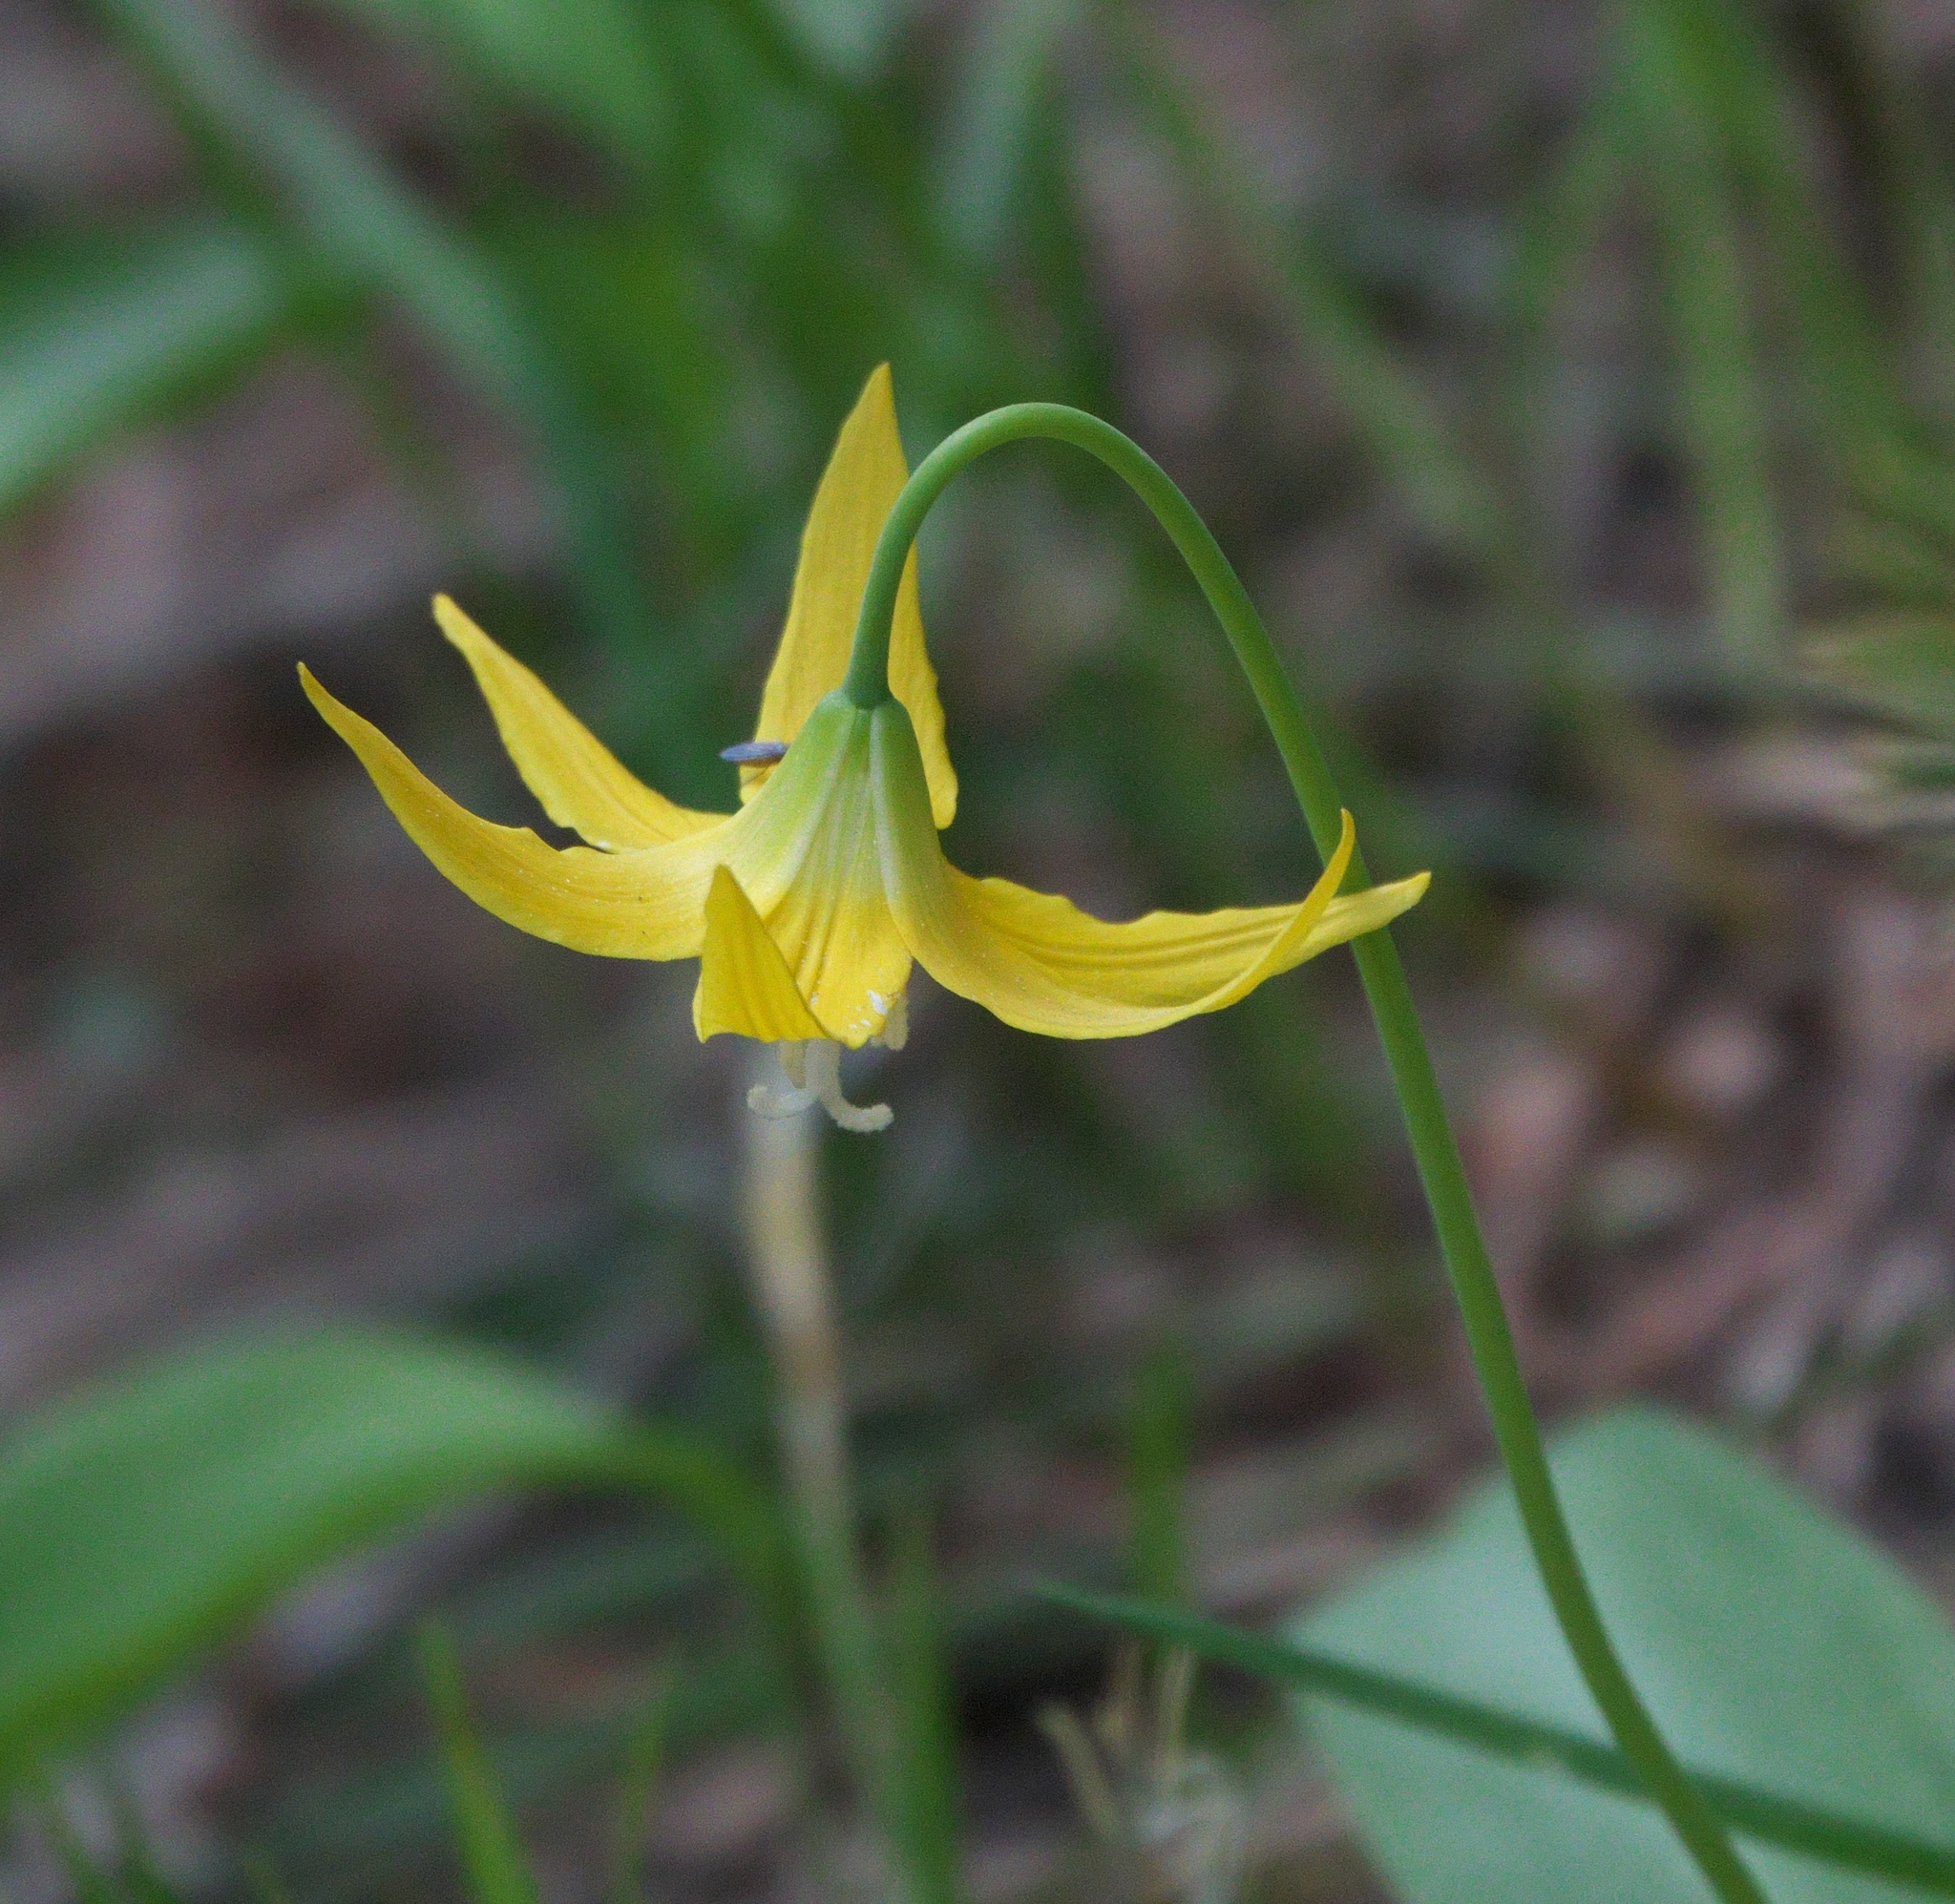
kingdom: Plantae
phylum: Tracheophyta
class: Liliopsida
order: Liliales
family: Liliaceae
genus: Erythronium
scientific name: Erythronium grandiflorum
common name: Avalanche-lily
